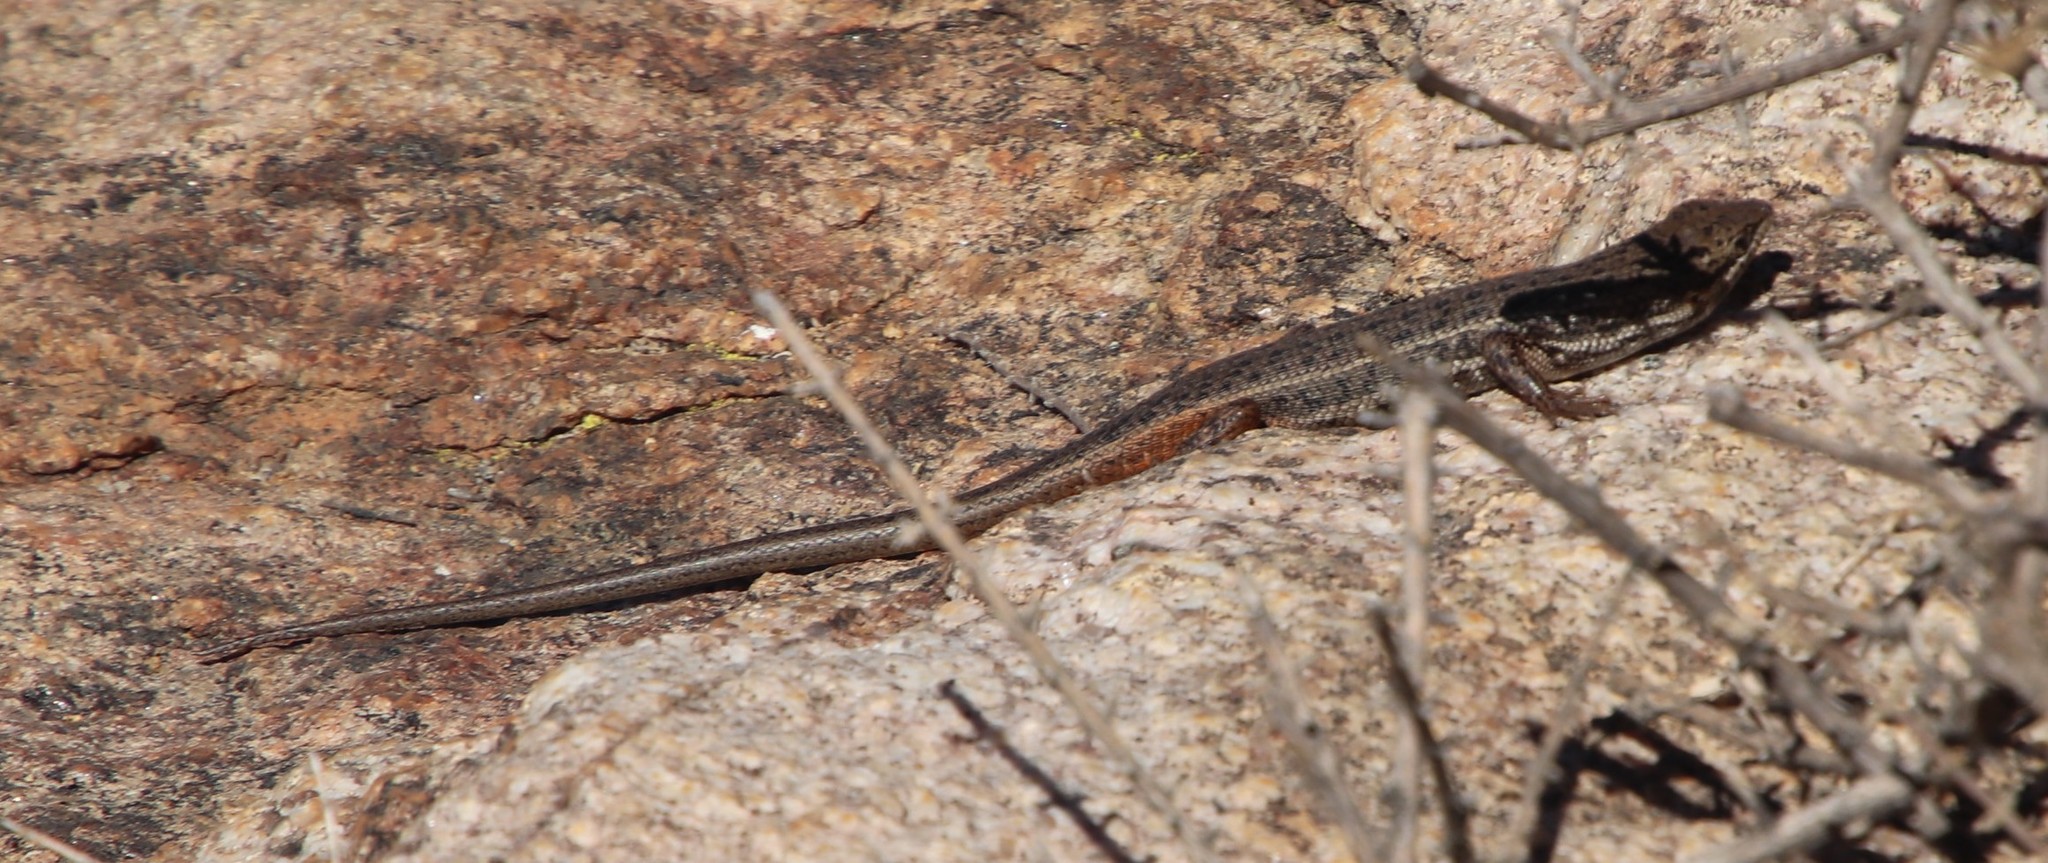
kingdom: Animalia
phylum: Chordata
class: Squamata
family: Scincidae
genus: Trachylepis
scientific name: Trachylepis variegata
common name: Variegated skink
